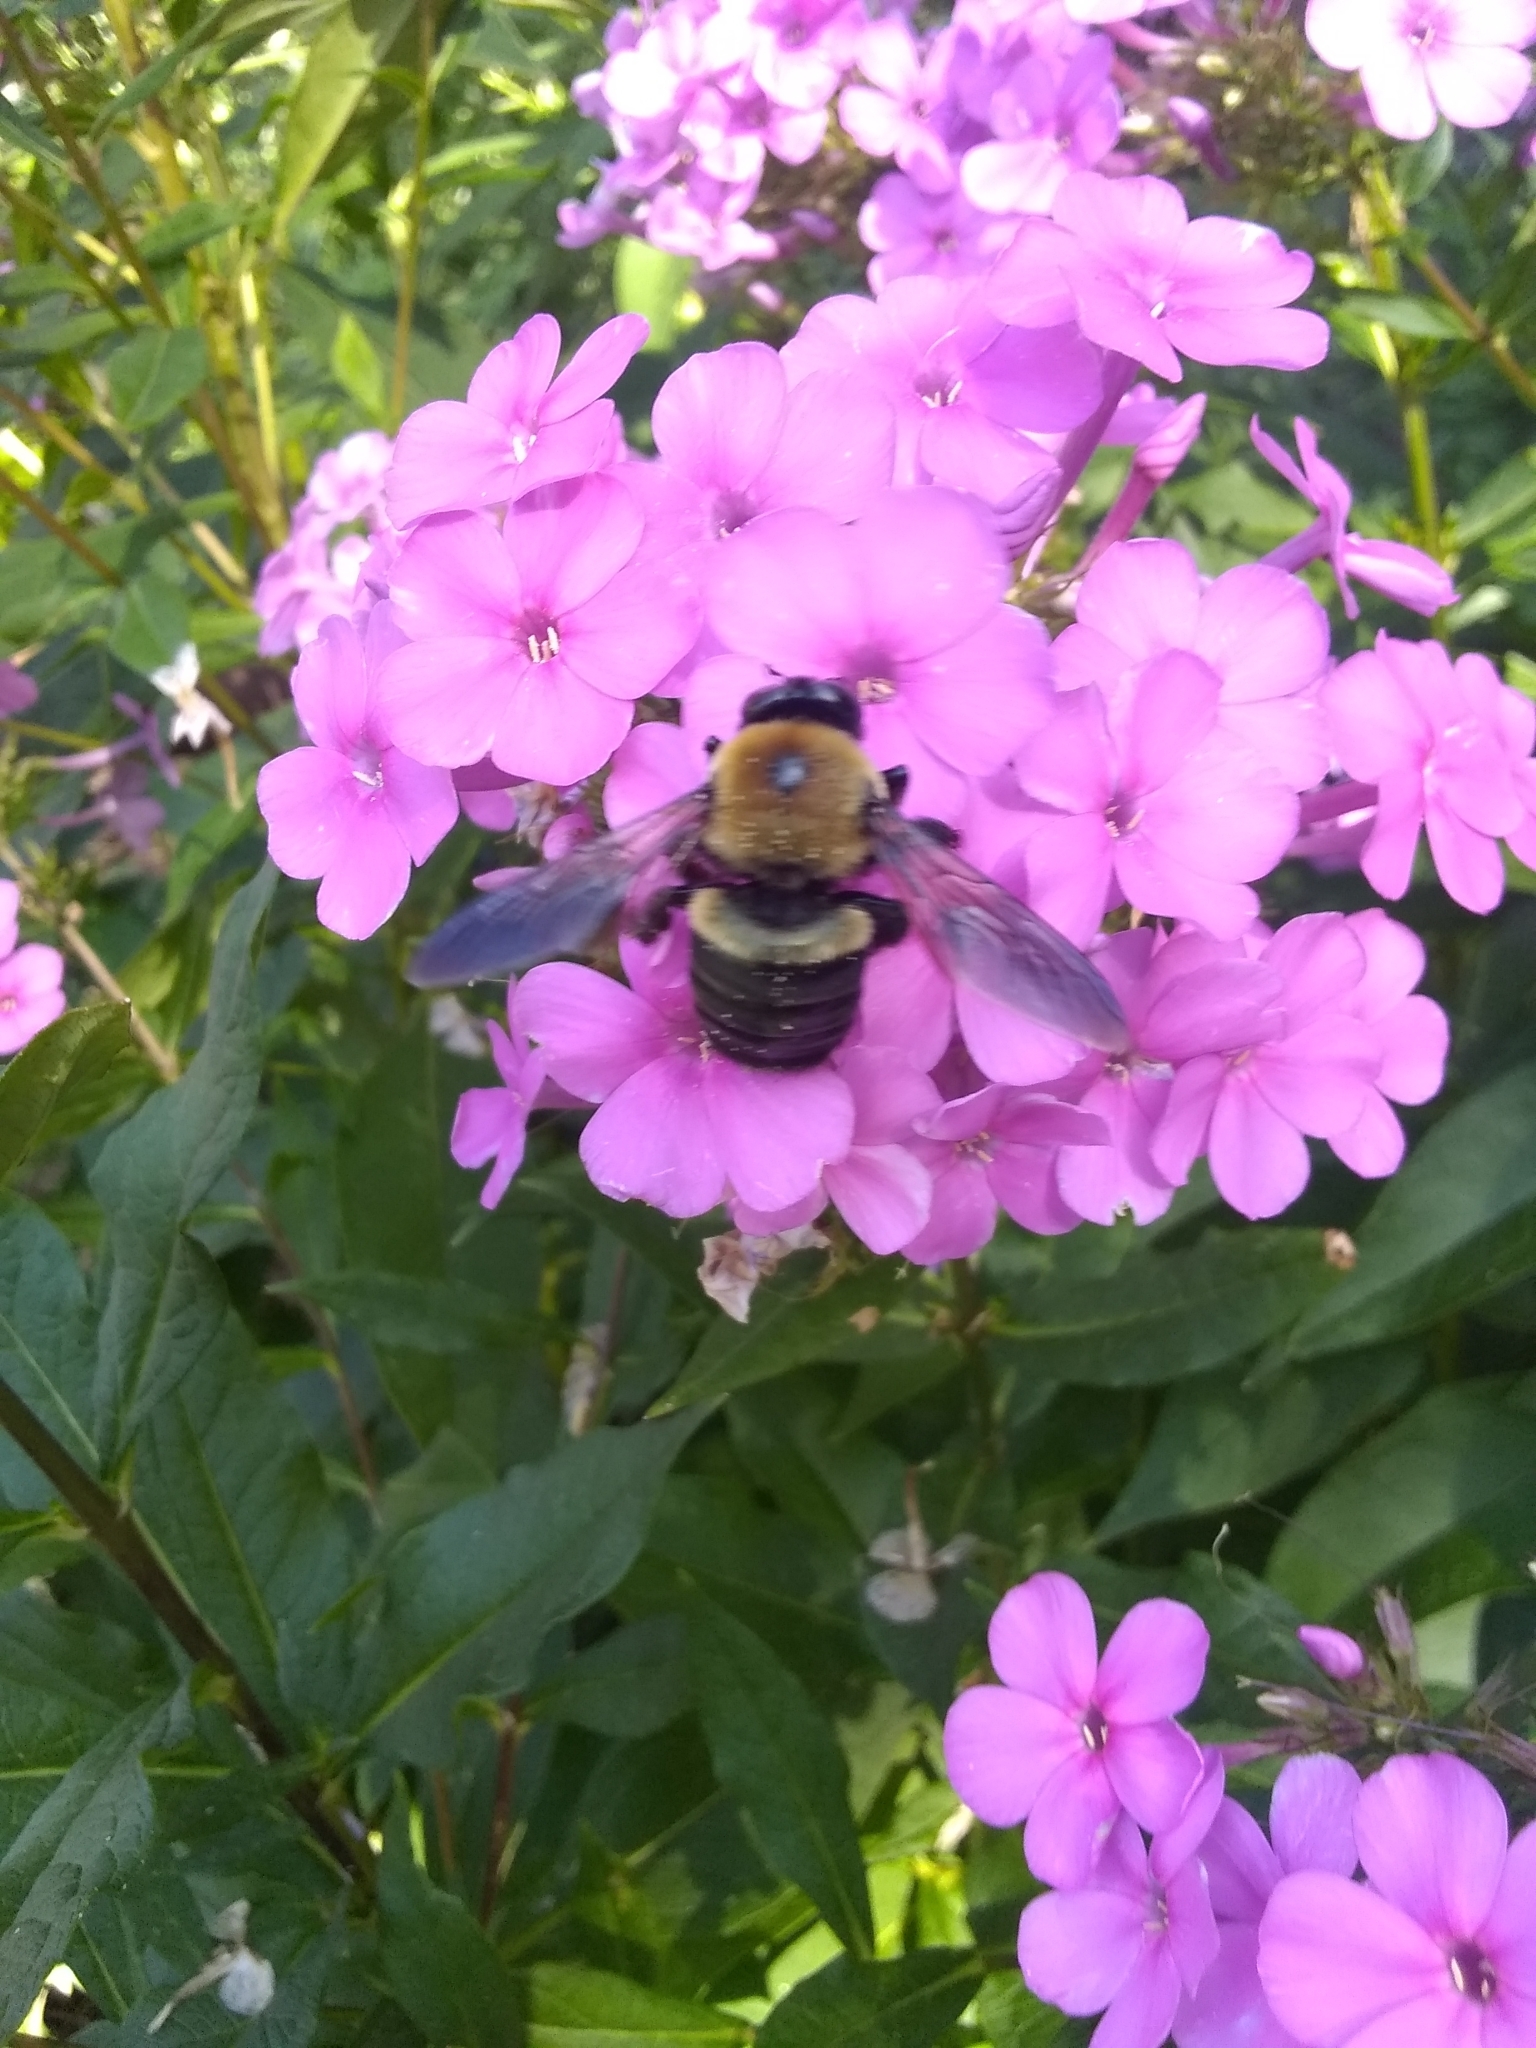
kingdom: Animalia
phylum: Arthropoda
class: Insecta
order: Hymenoptera
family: Apidae
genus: Xylocopa
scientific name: Xylocopa virginica
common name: Carpenter bee
